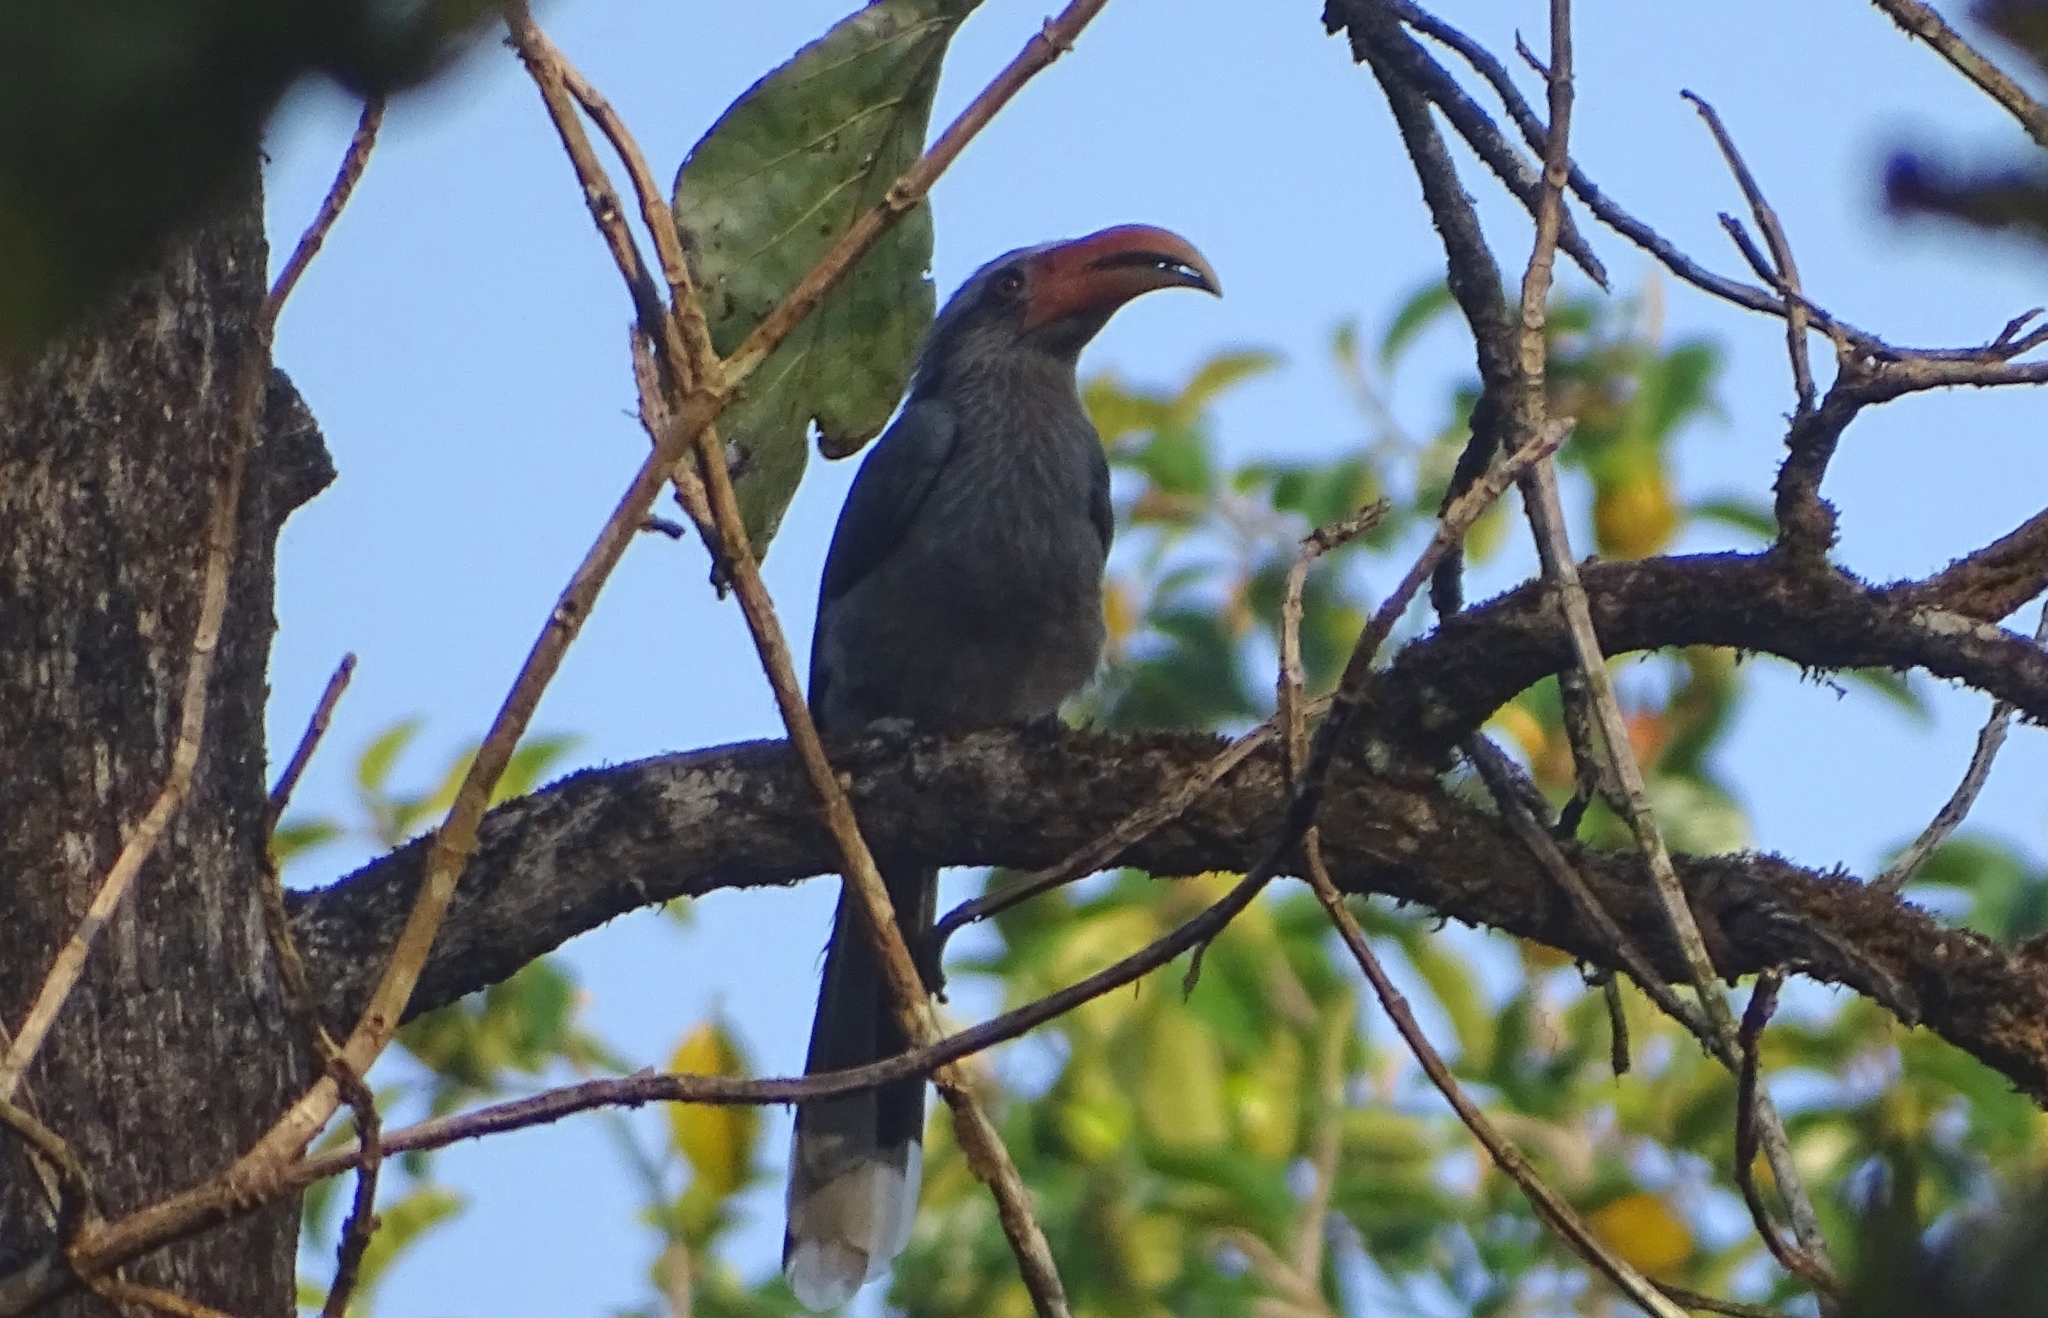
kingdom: Animalia
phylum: Chordata
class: Aves
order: Bucerotiformes
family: Bucerotidae
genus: Ocyceros
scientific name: Ocyceros griseus
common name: Malabar grey hornbill
